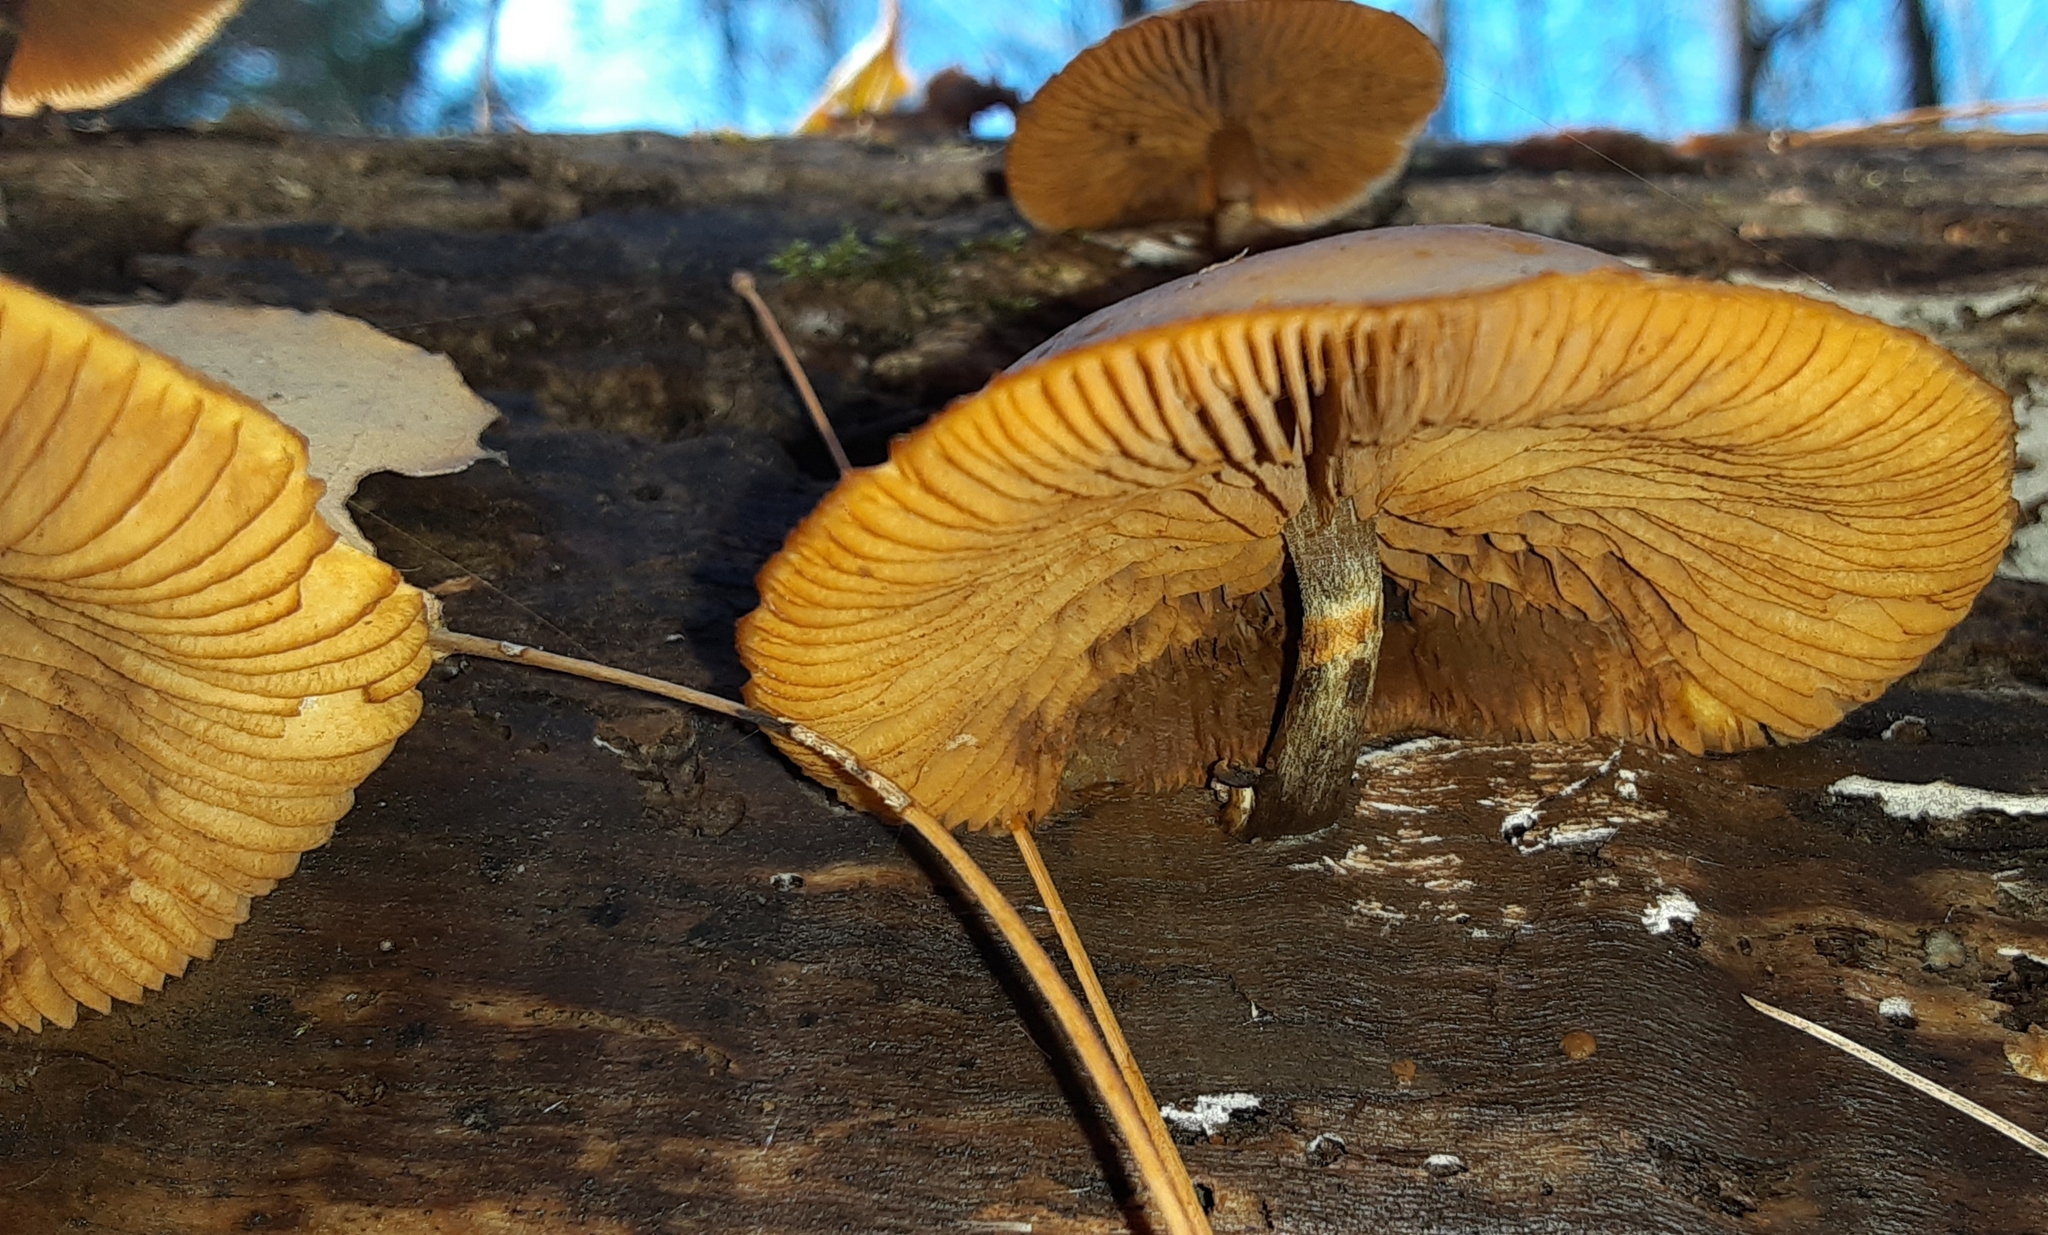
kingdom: Fungi
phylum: Basidiomycota
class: Agaricomycetes
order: Agaricales
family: Hymenogastraceae
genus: Galerina
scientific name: Galerina marginata
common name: Funeral bell
